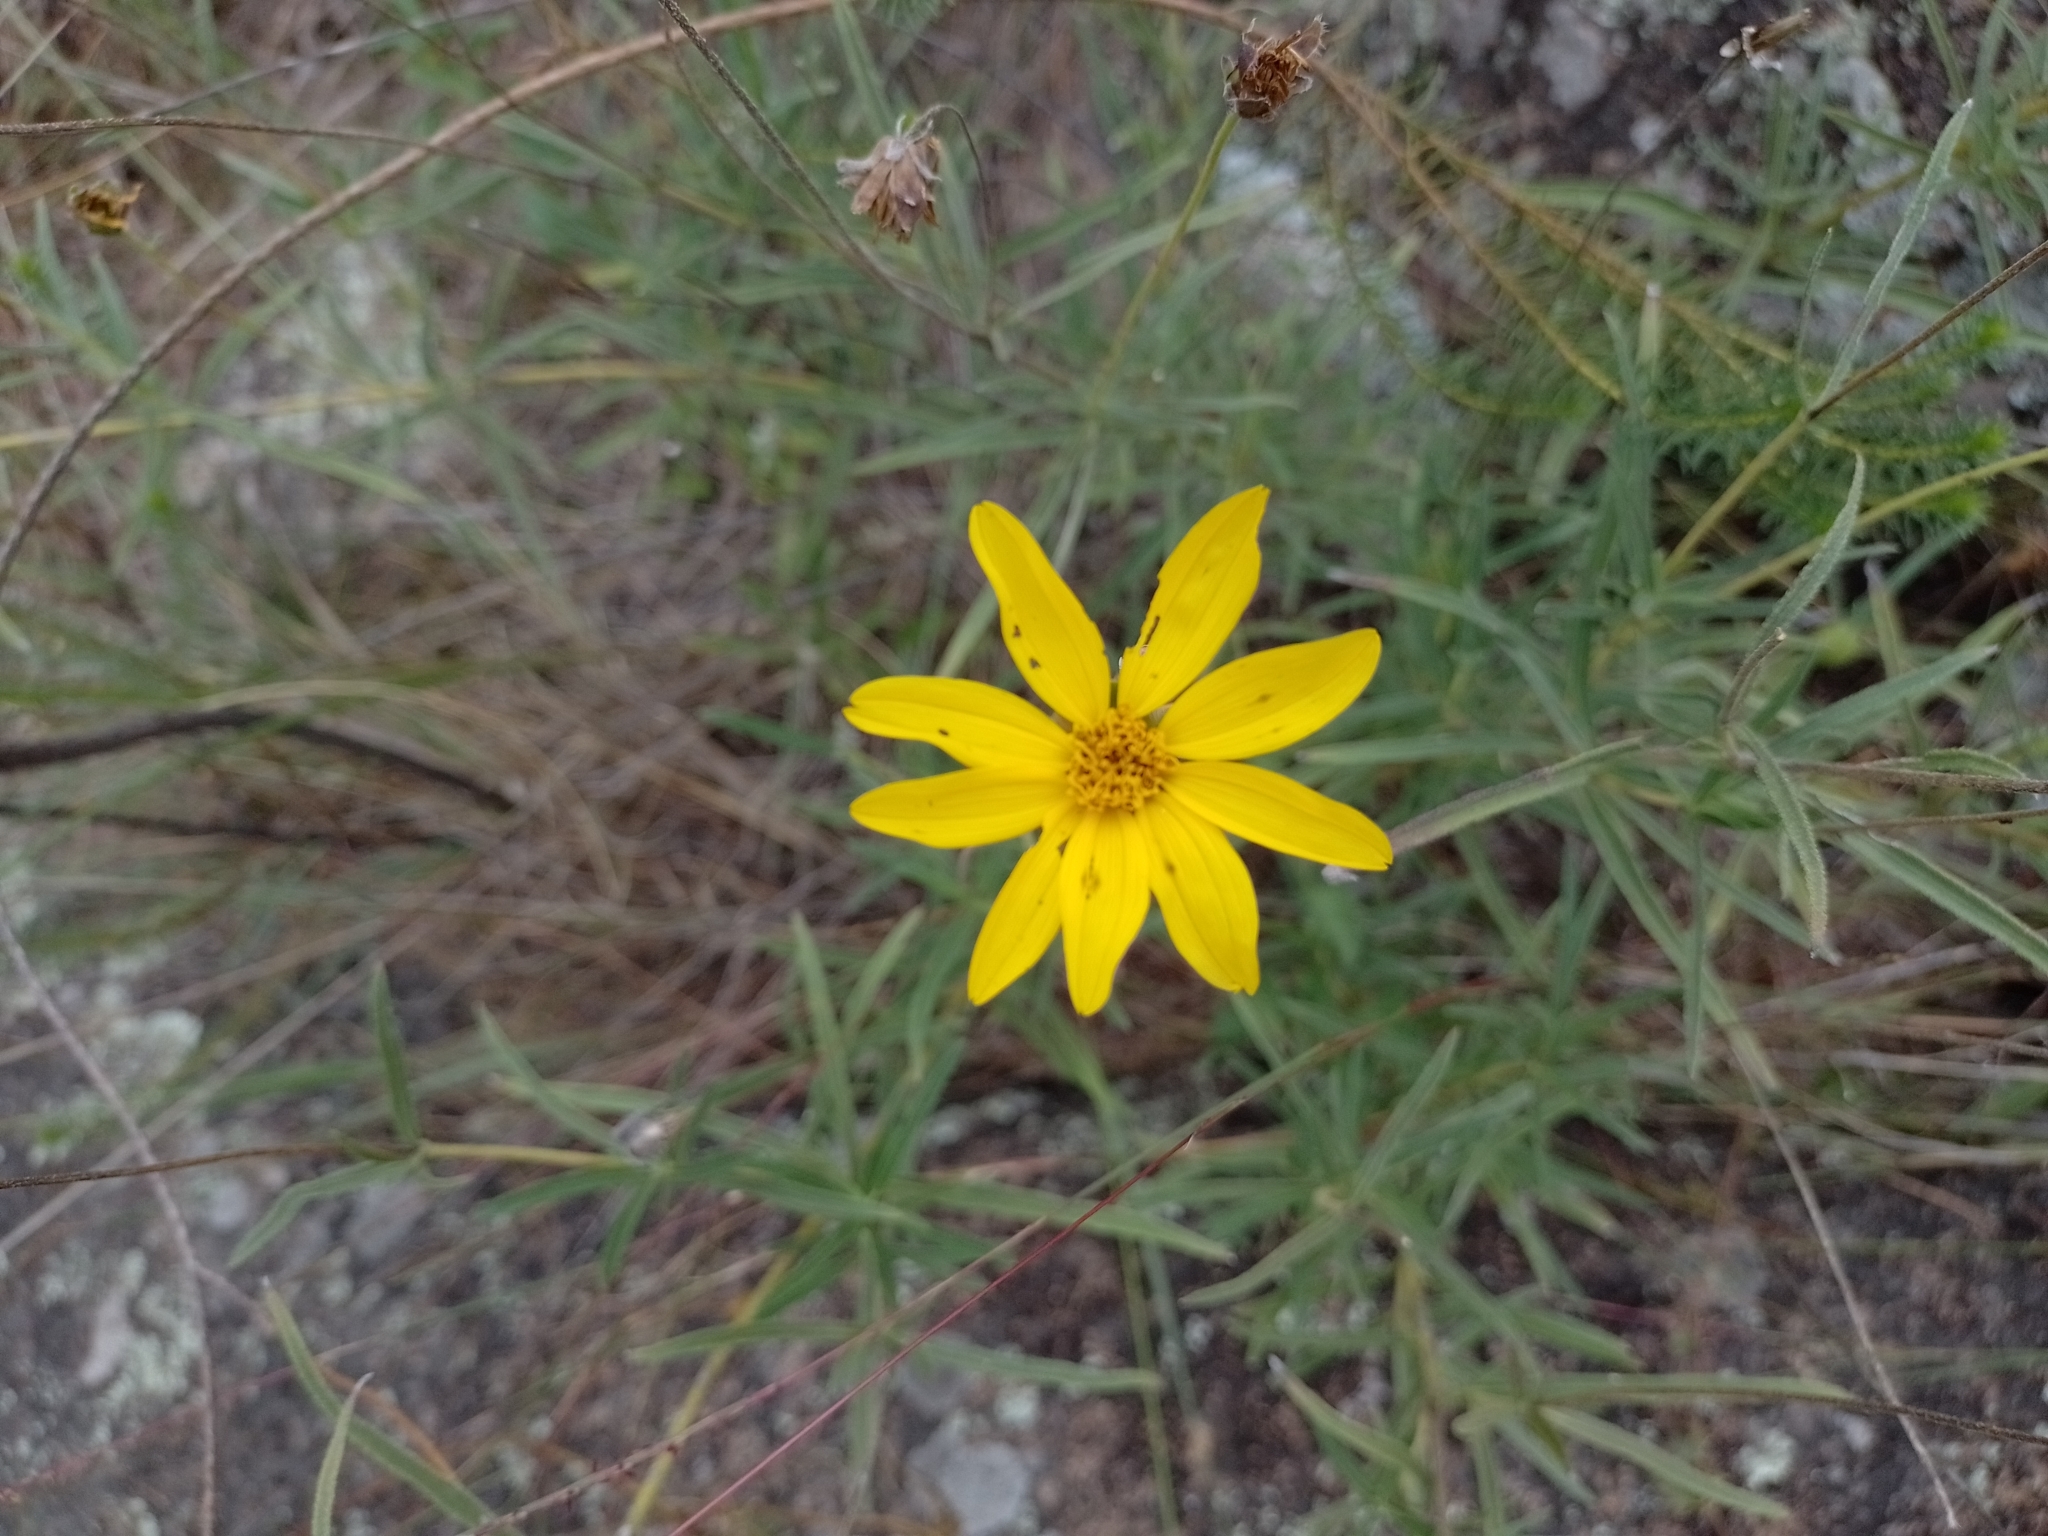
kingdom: Plantae
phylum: Tracheophyta
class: Magnoliopsida
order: Asterales
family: Asteraceae
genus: Zexmenia
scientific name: Zexmenia buphtalmiflora
